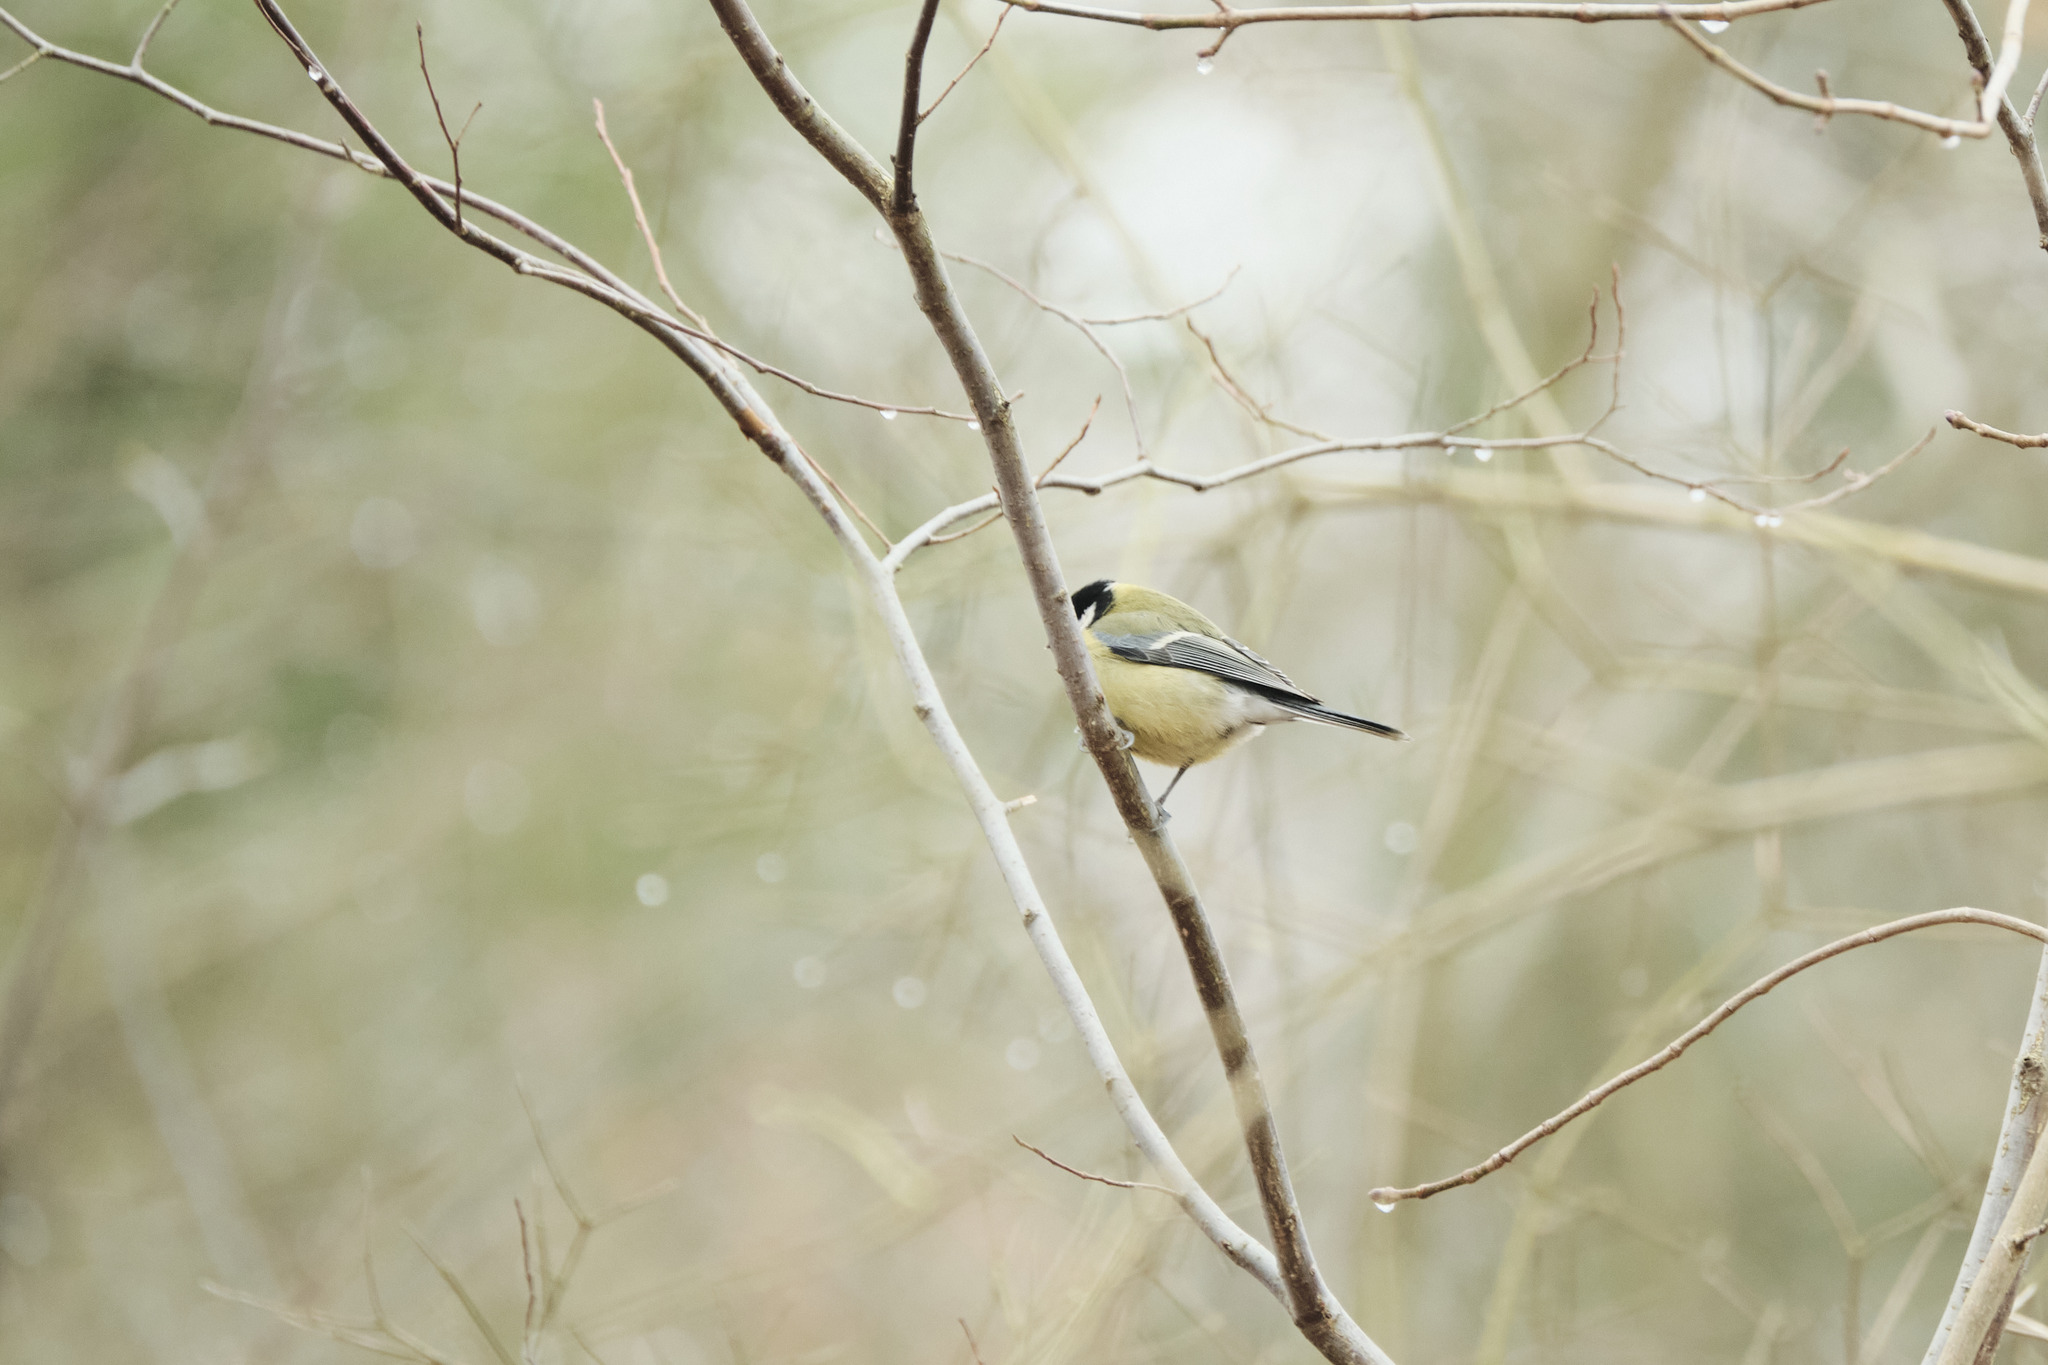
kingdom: Animalia
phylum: Chordata
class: Aves
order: Passeriformes
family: Paridae
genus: Parus
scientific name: Parus major
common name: Great tit
